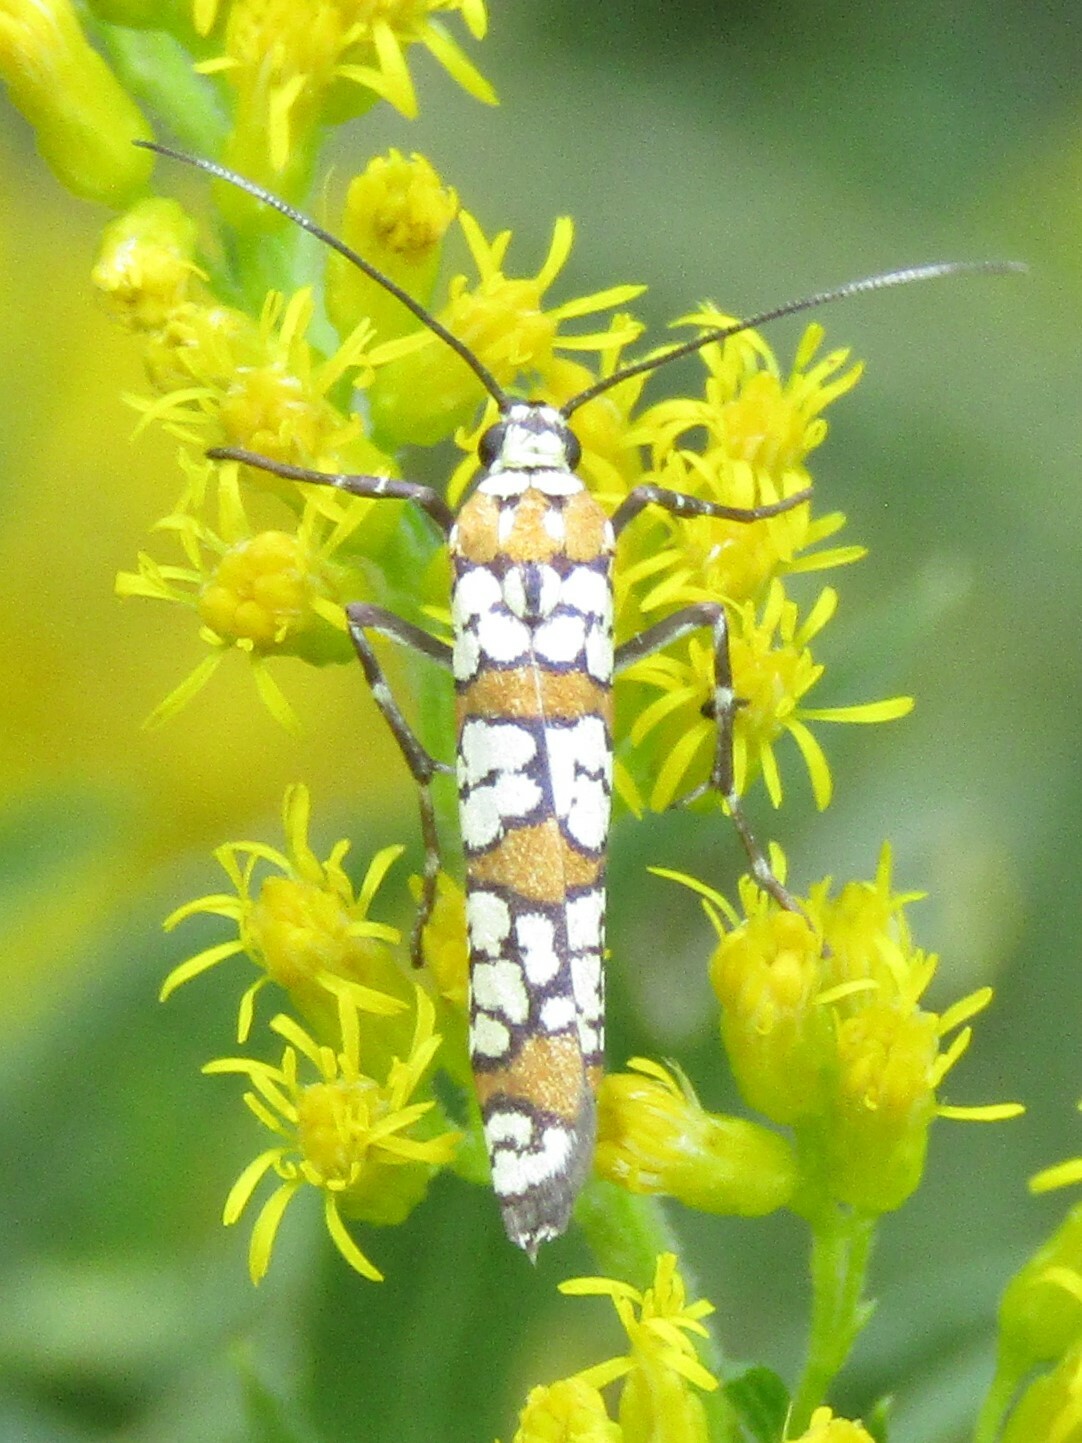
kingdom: Animalia
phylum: Arthropoda
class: Insecta
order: Lepidoptera
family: Attevidae
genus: Atteva
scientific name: Atteva punctella
